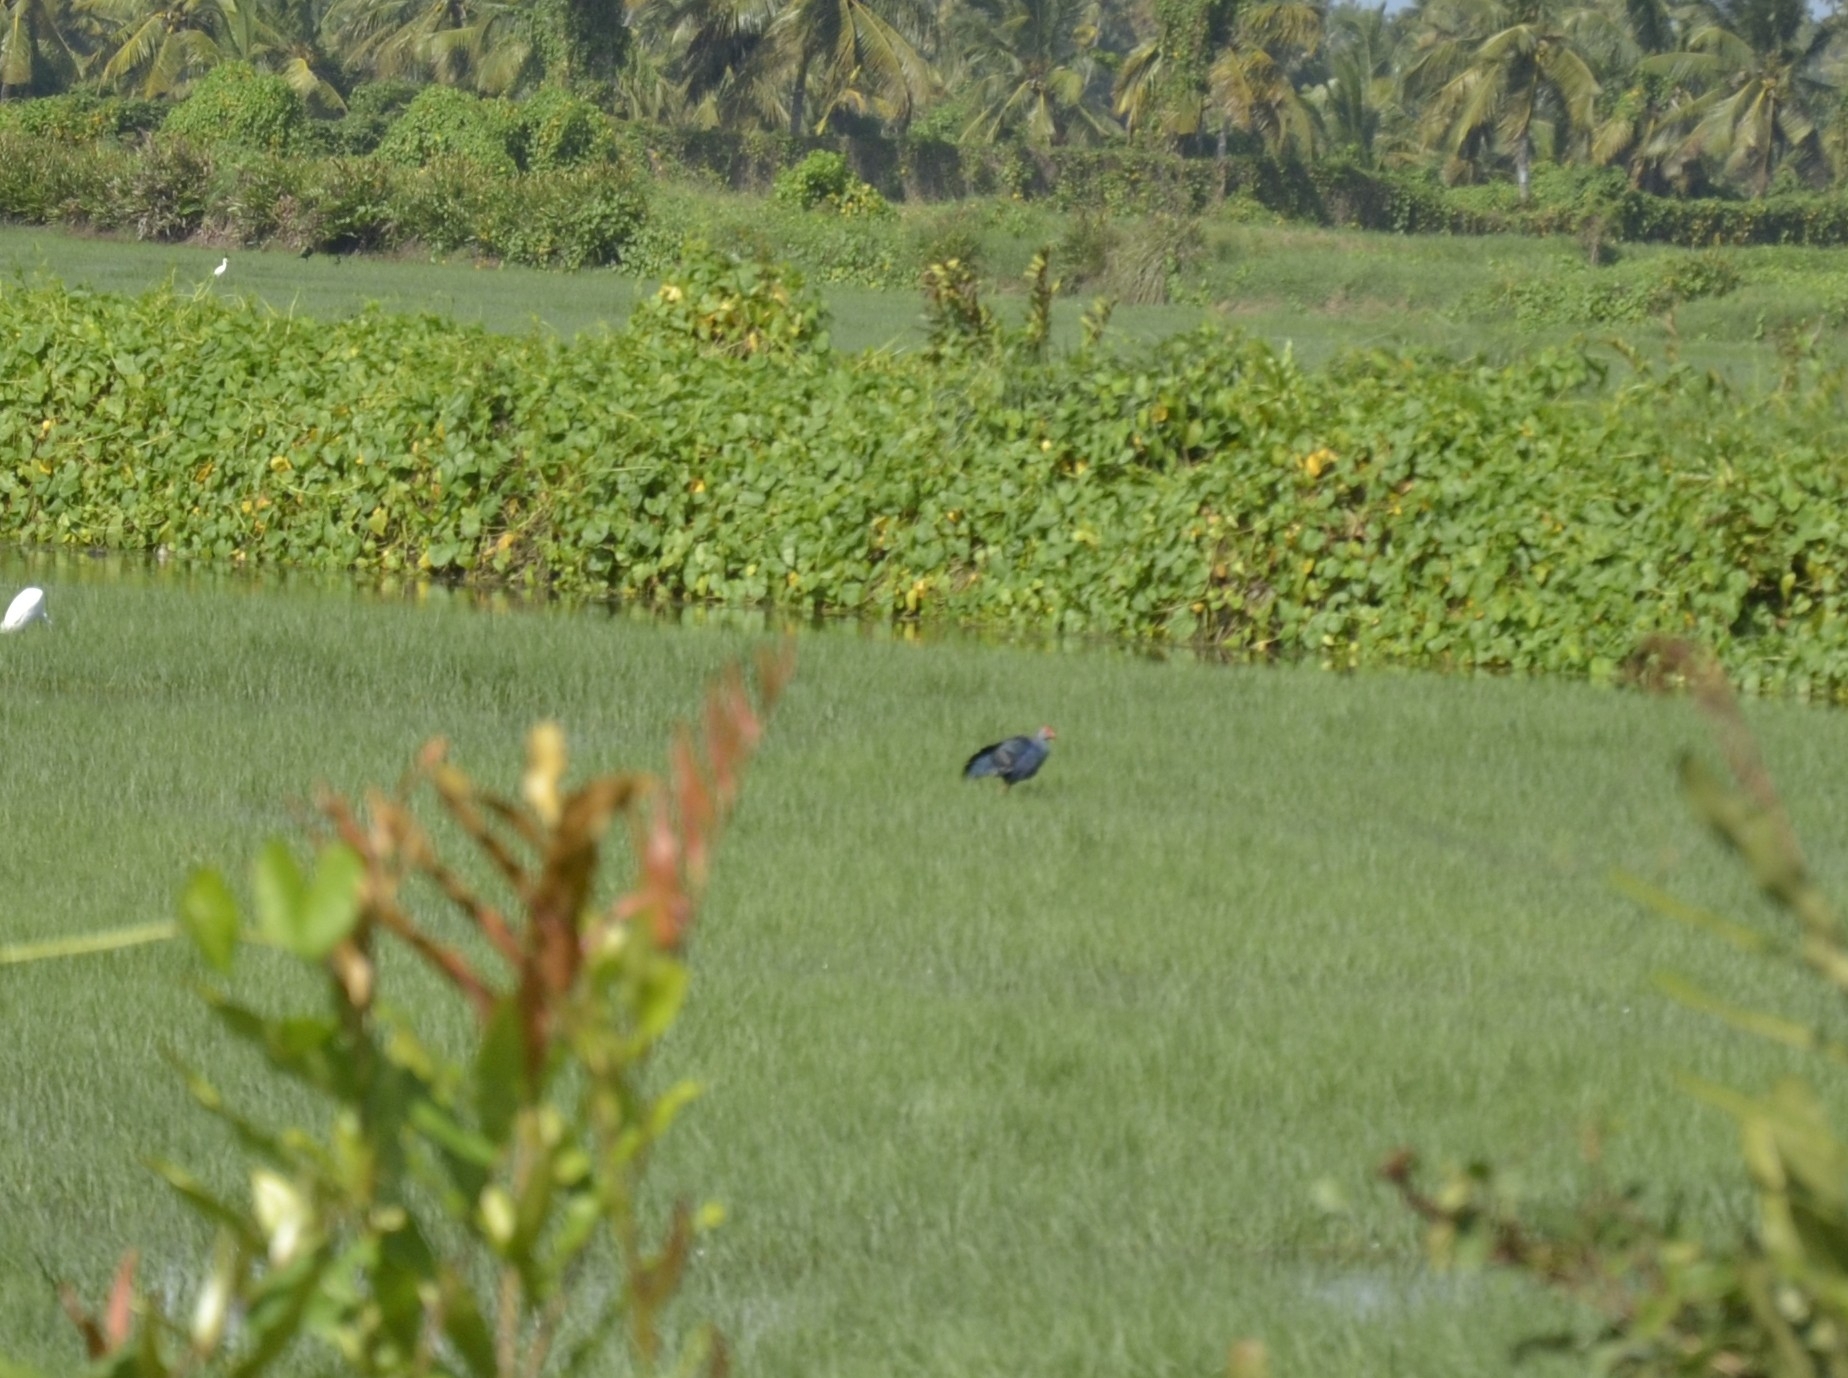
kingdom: Animalia
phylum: Chordata
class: Aves
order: Gruiformes
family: Rallidae
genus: Porphyrio
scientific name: Porphyrio porphyrio
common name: Purple swamphen
